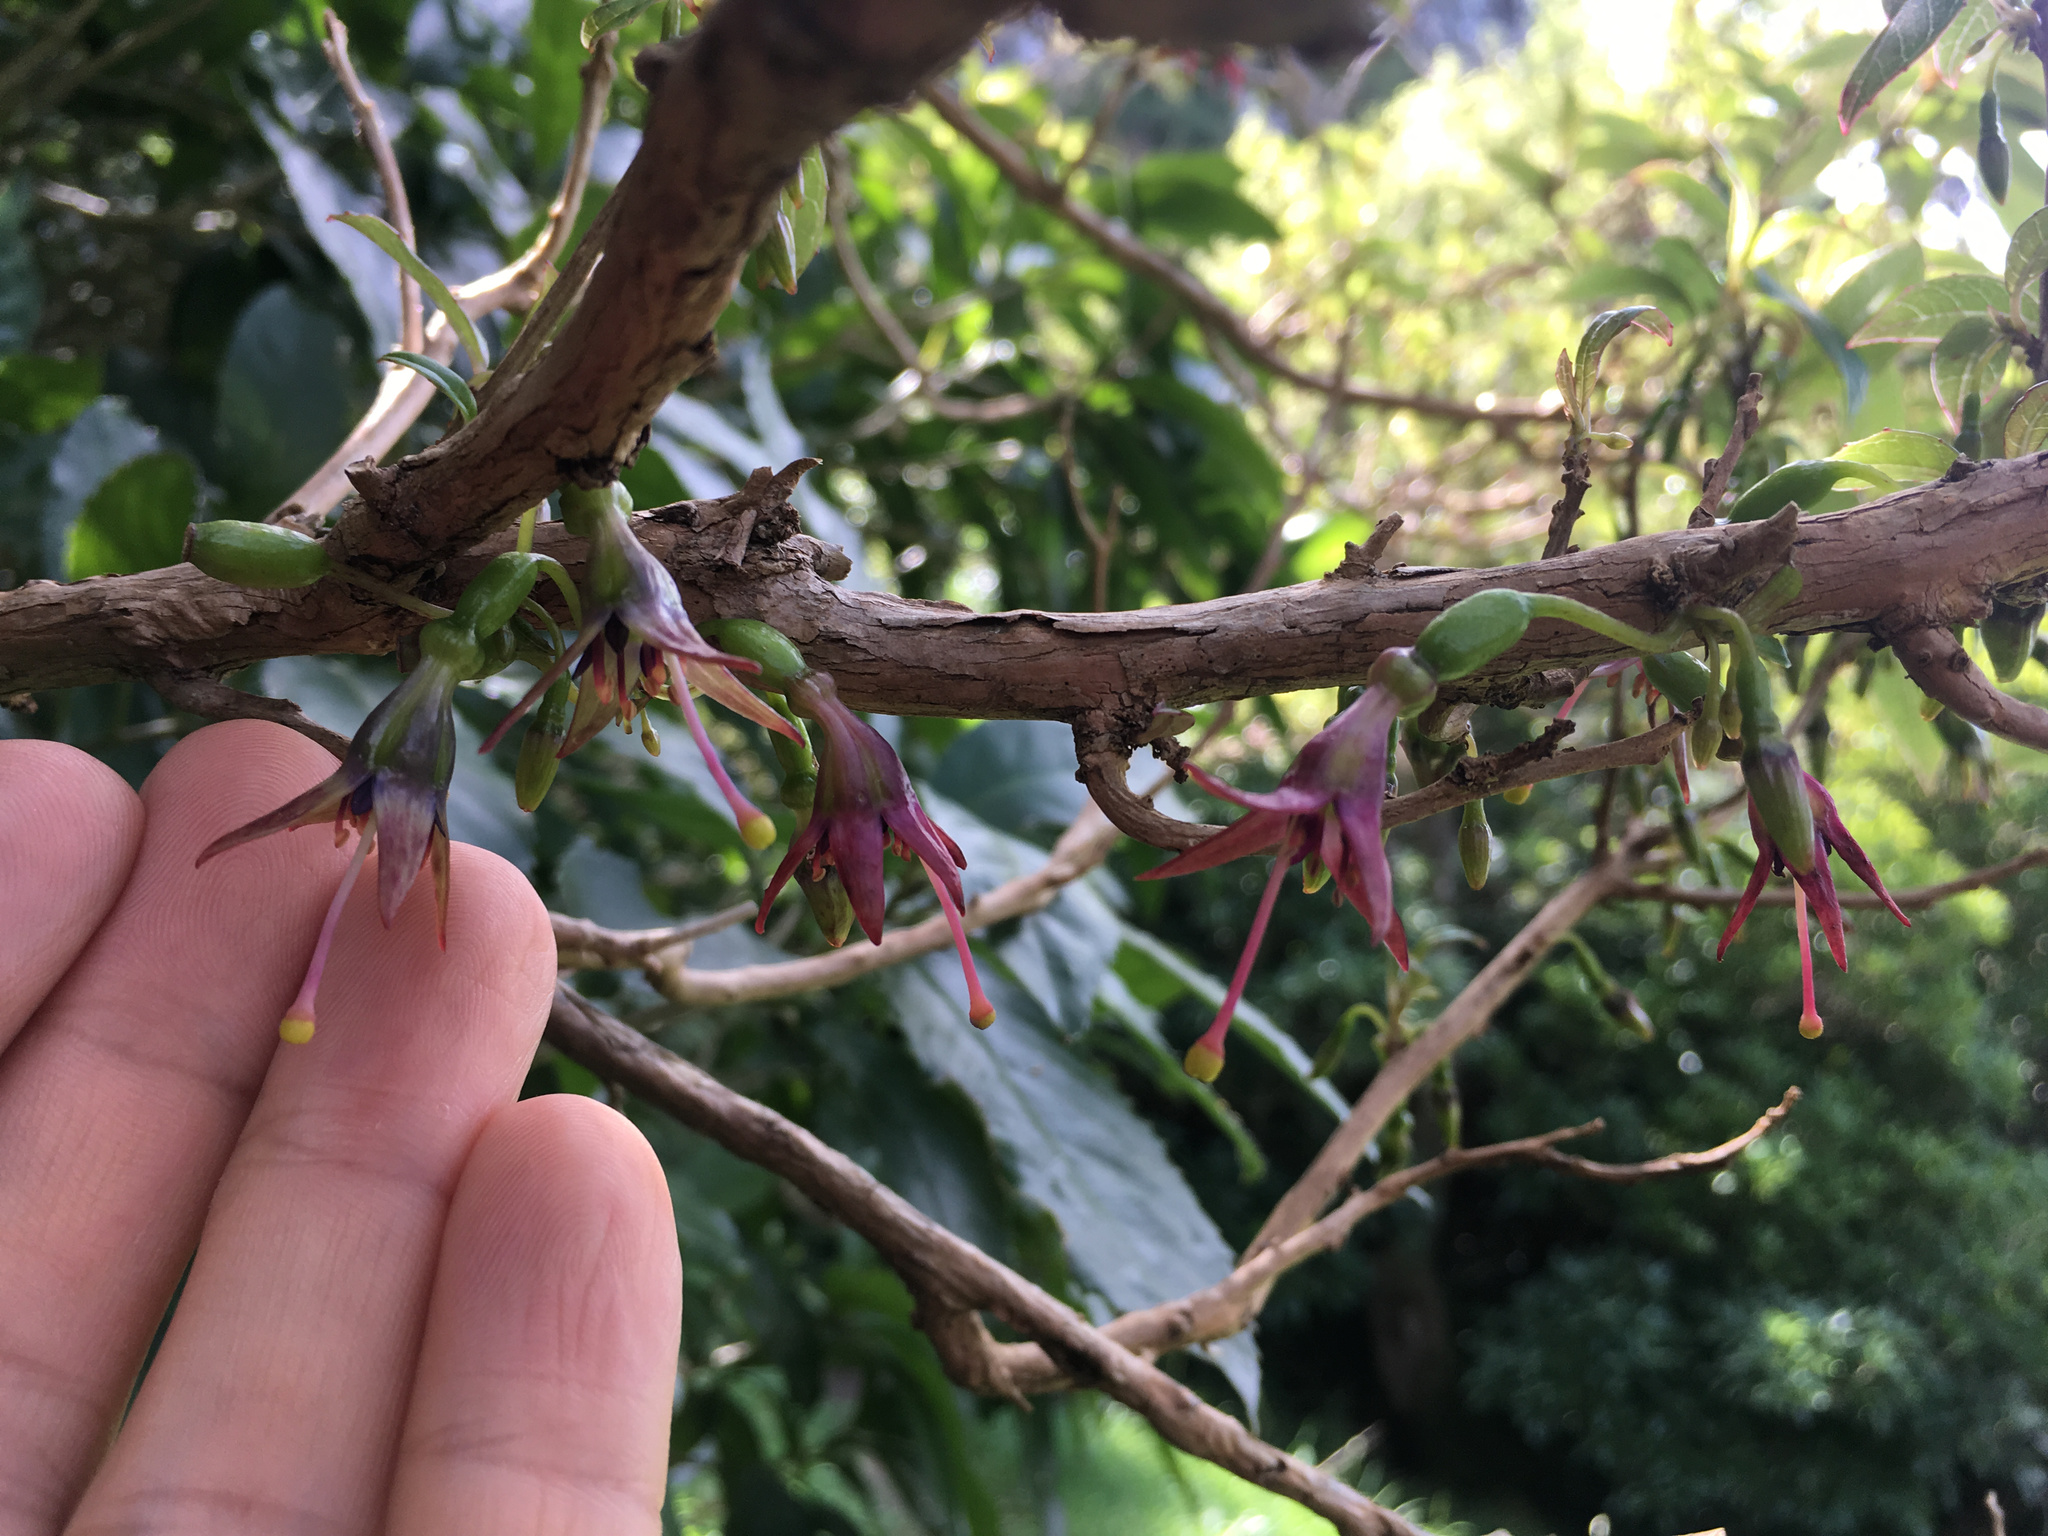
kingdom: Plantae
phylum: Tracheophyta
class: Magnoliopsida
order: Myrtales
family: Onagraceae
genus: Fuchsia
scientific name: Fuchsia excorticata
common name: Tree fuchsia
